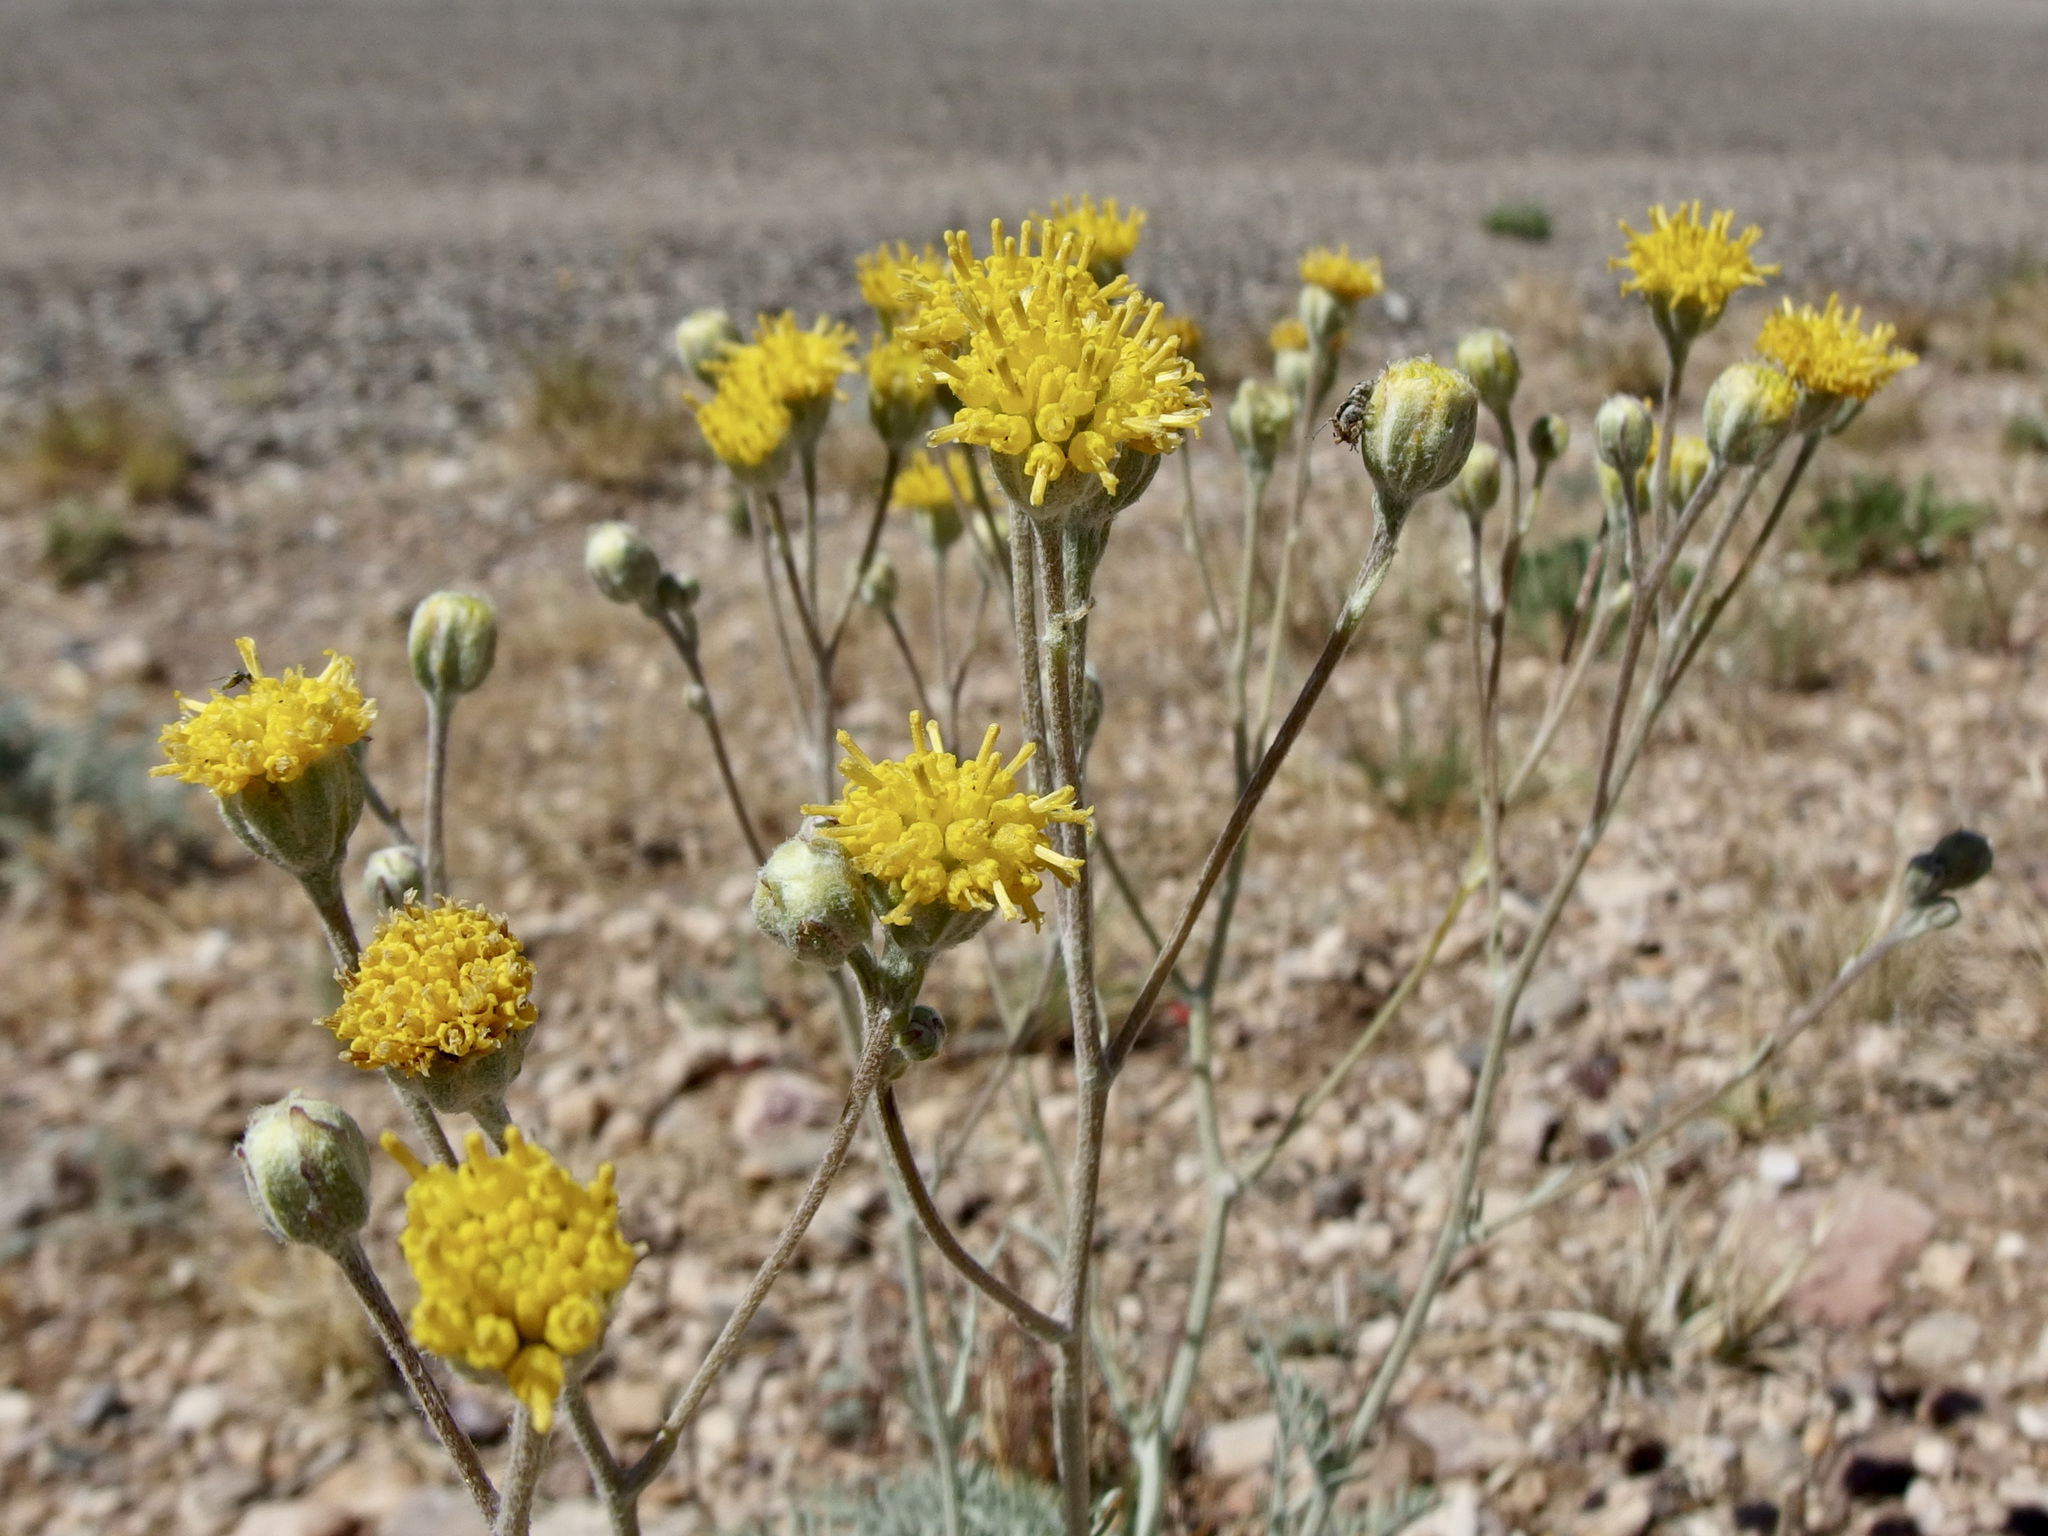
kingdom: Plantae
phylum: Tracheophyta
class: Magnoliopsida
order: Asterales
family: Asteraceae
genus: Hymenopappus
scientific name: Hymenopappus filifolius
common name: Columbia cutleaf
